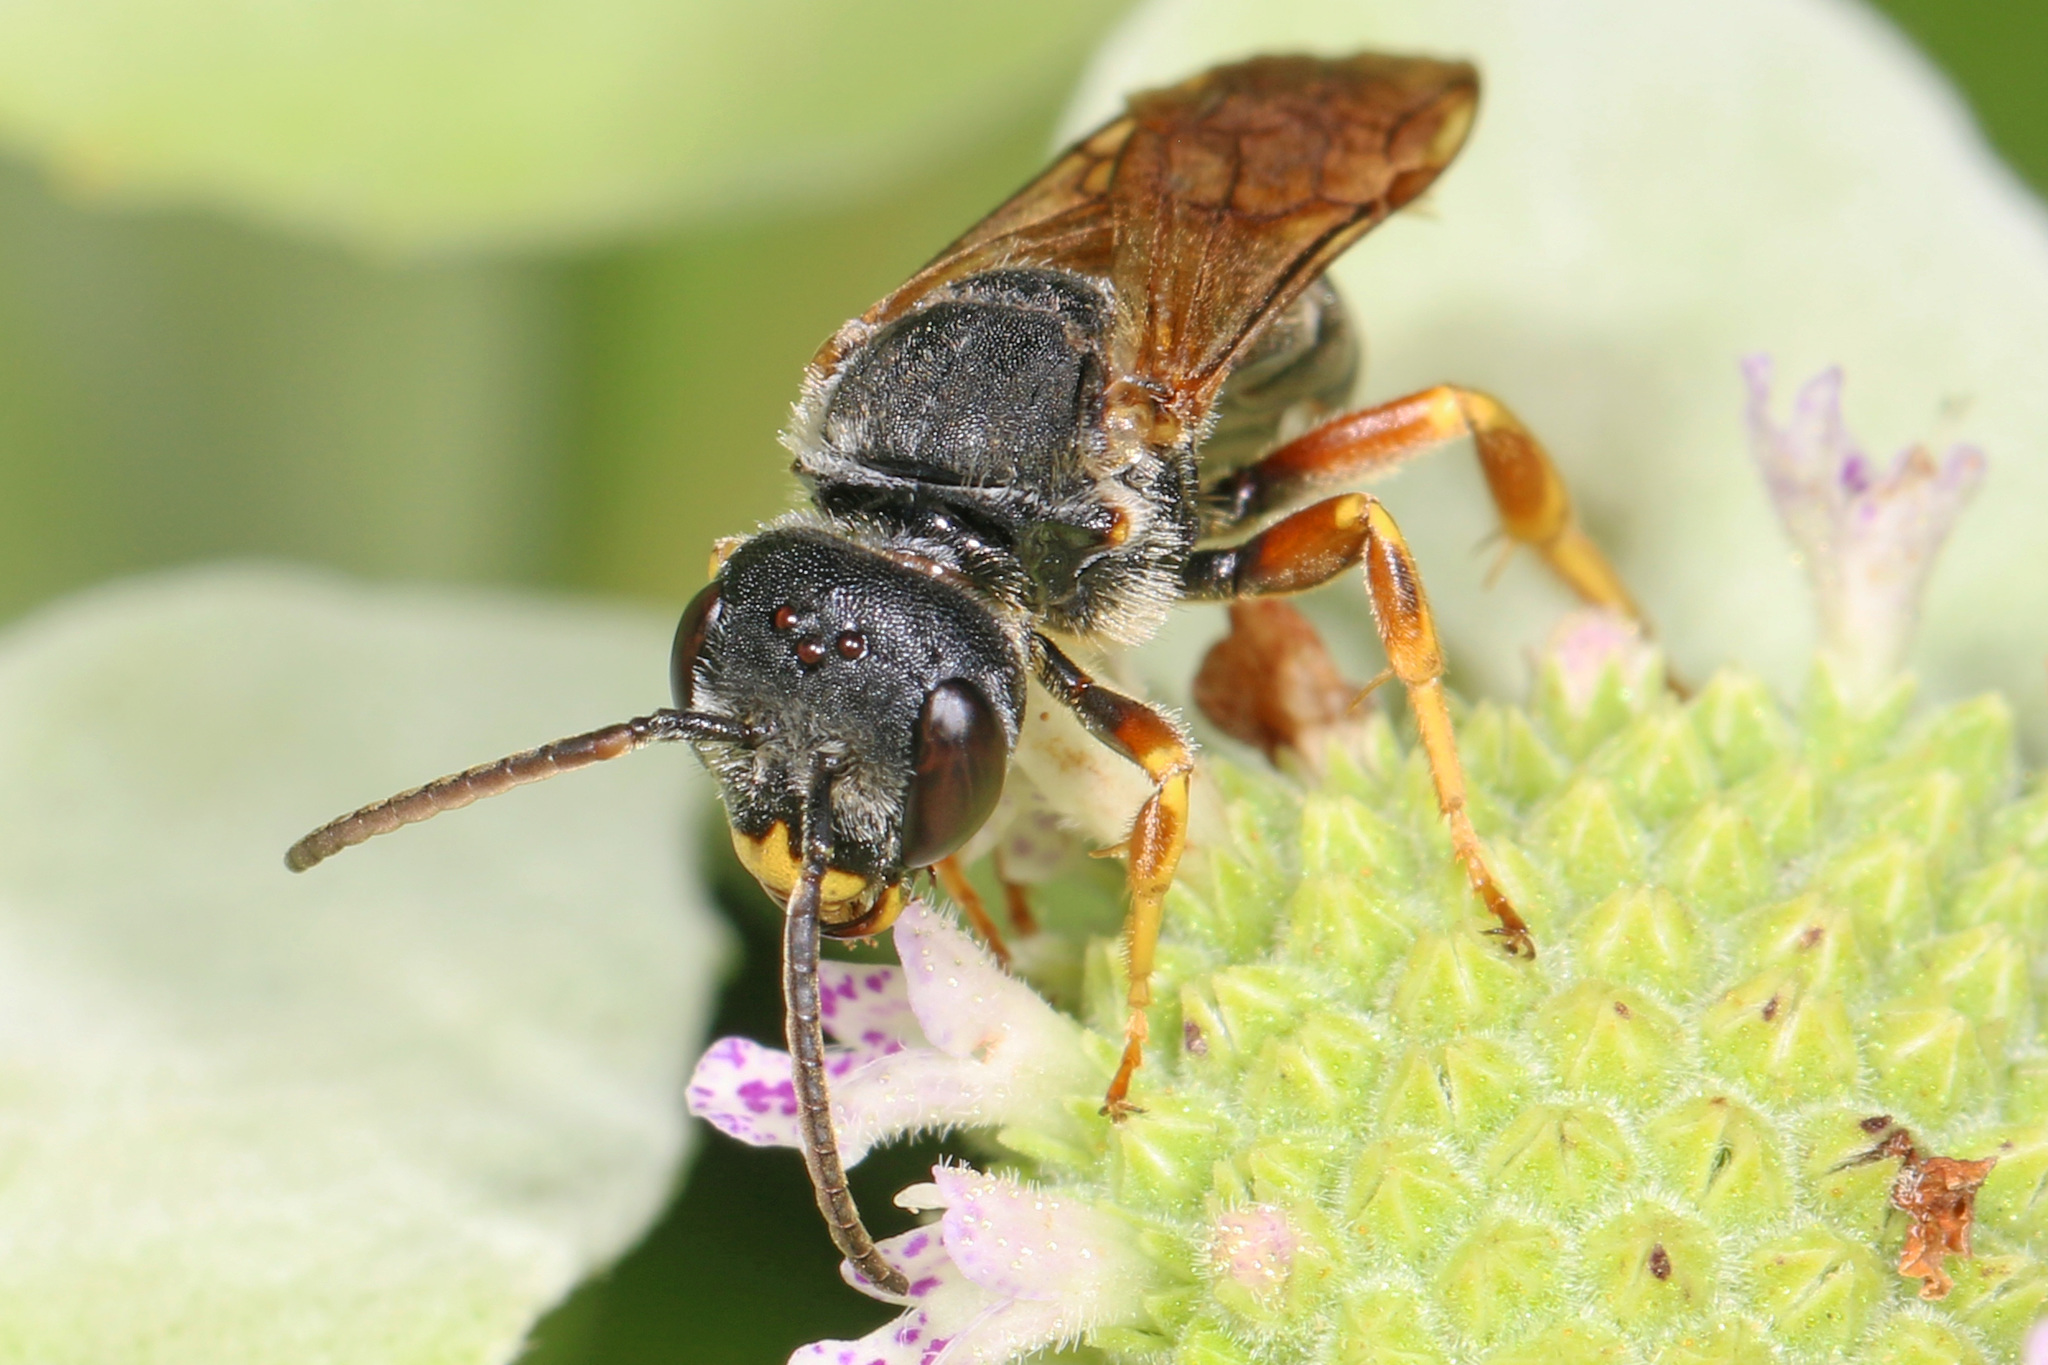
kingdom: Animalia
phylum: Arthropoda
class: Insecta
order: Hymenoptera
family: Halictidae
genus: Halictus
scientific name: Halictus parallelus
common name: Parallel-striped sweat bee
